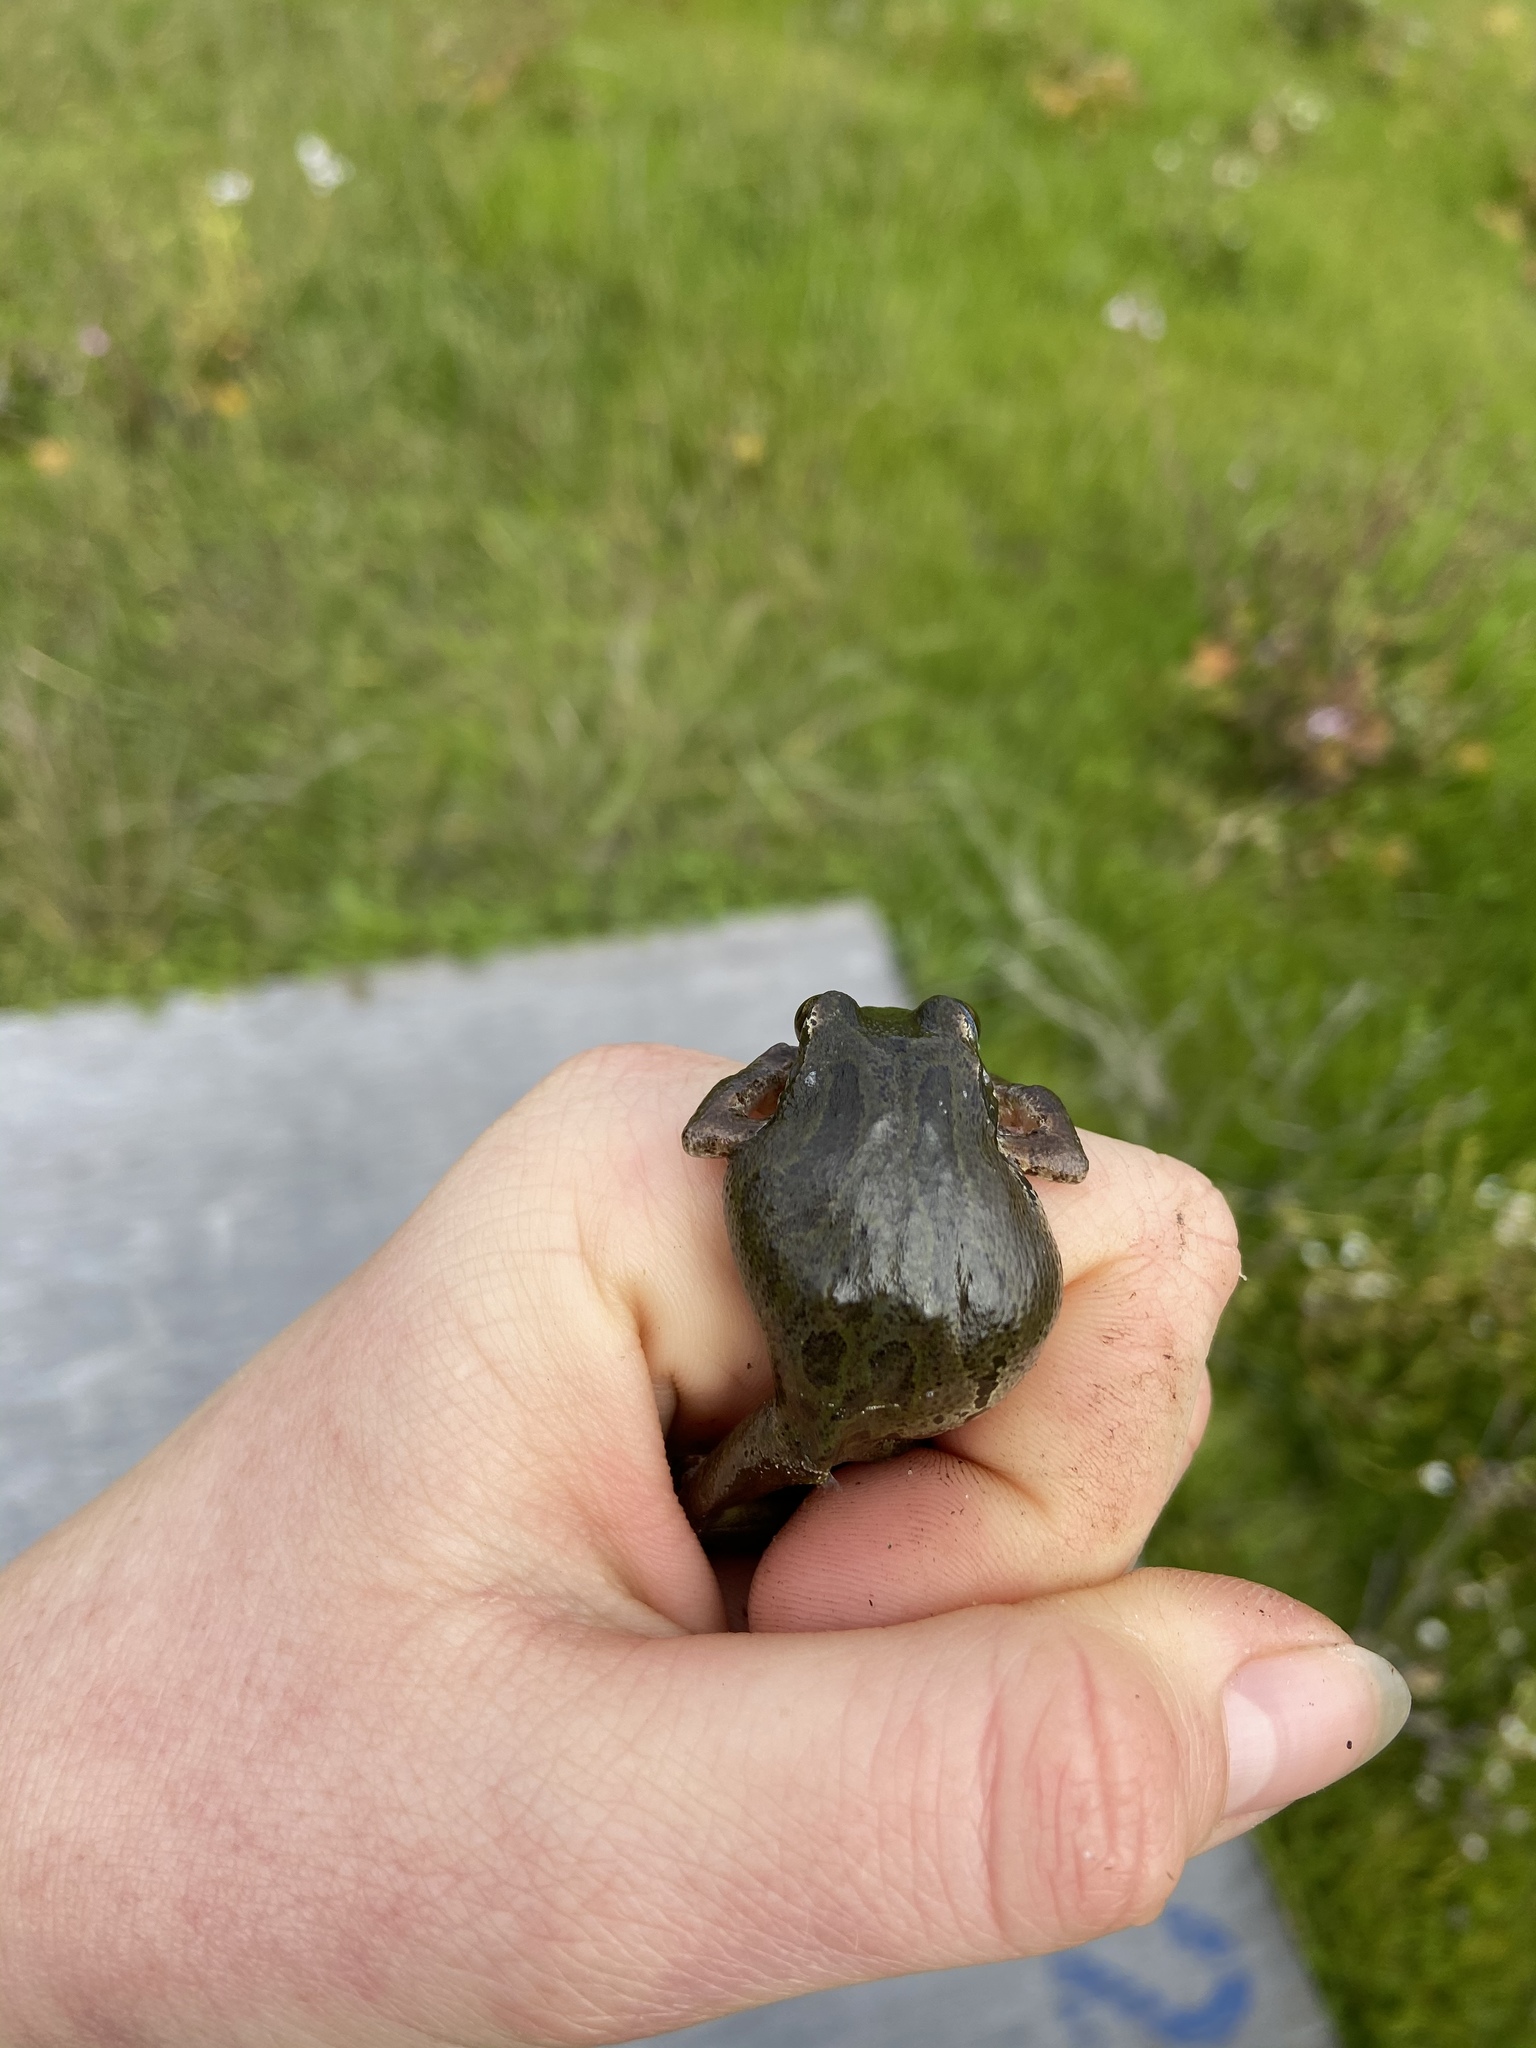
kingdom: Animalia
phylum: Chordata
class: Amphibia
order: Anura
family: Hylidae
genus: Pseudacris
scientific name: Pseudacris regilla
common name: Pacific chorus frog
